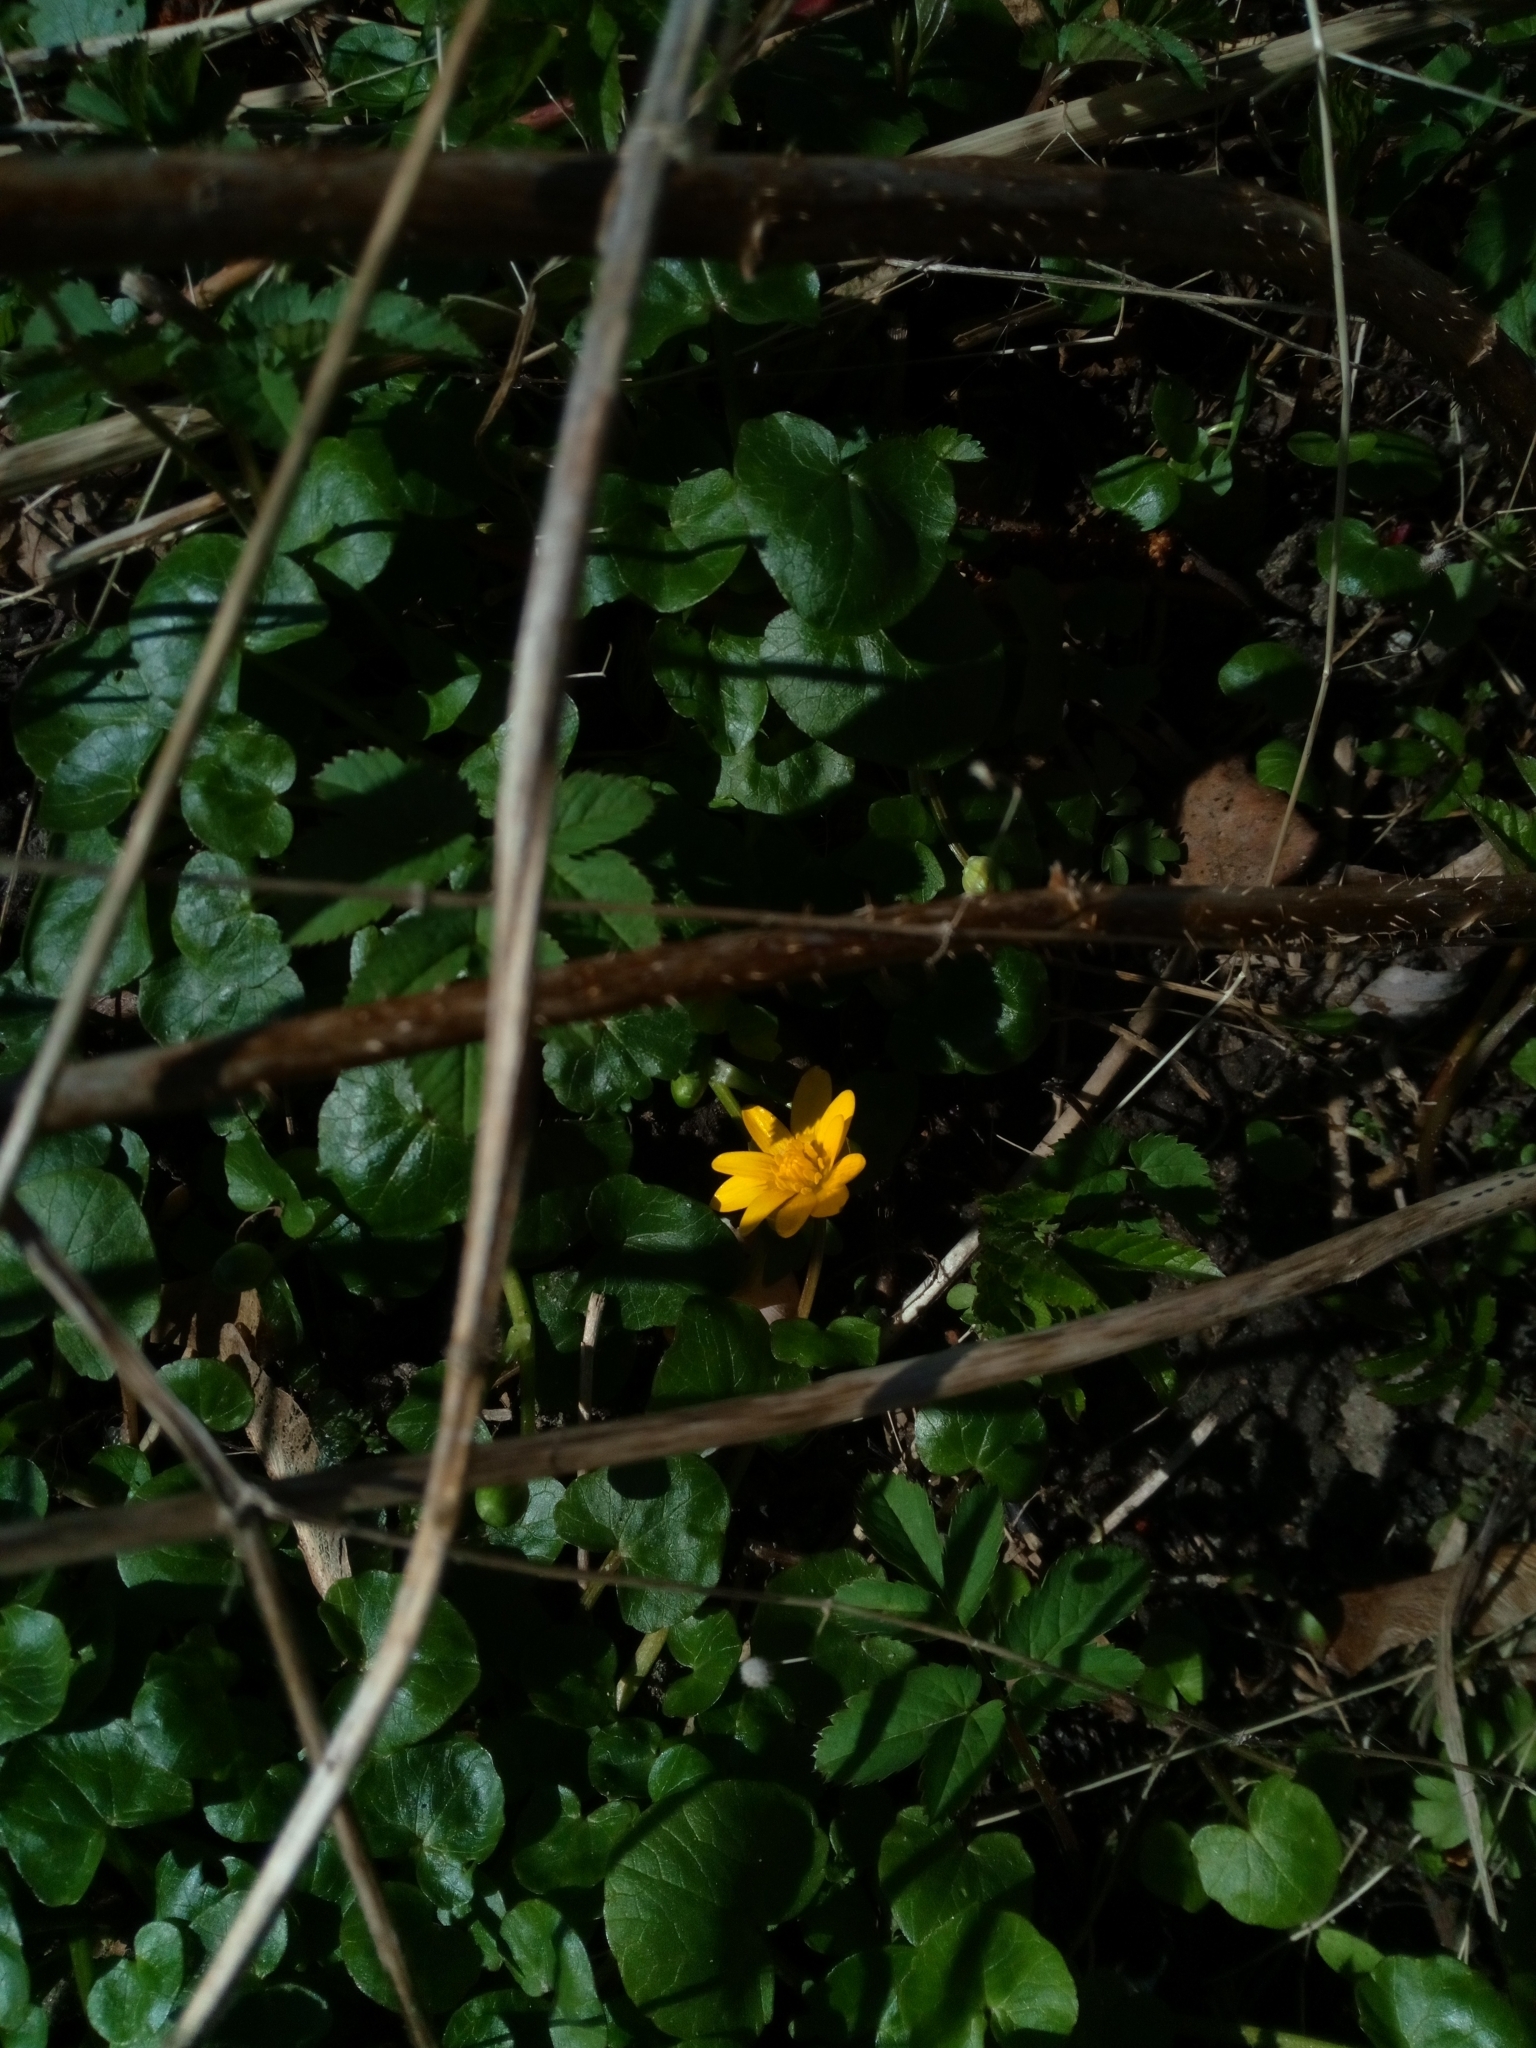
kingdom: Plantae
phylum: Tracheophyta
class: Magnoliopsida
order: Ranunculales
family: Ranunculaceae
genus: Ficaria
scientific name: Ficaria verna
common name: Lesser celandine
